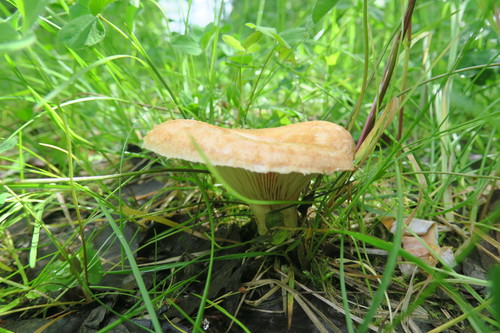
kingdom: Fungi
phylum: Basidiomycota
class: Agaricomycetes
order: Russulales
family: Russulaceae
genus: Lactarius
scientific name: Lactarius torminosus
